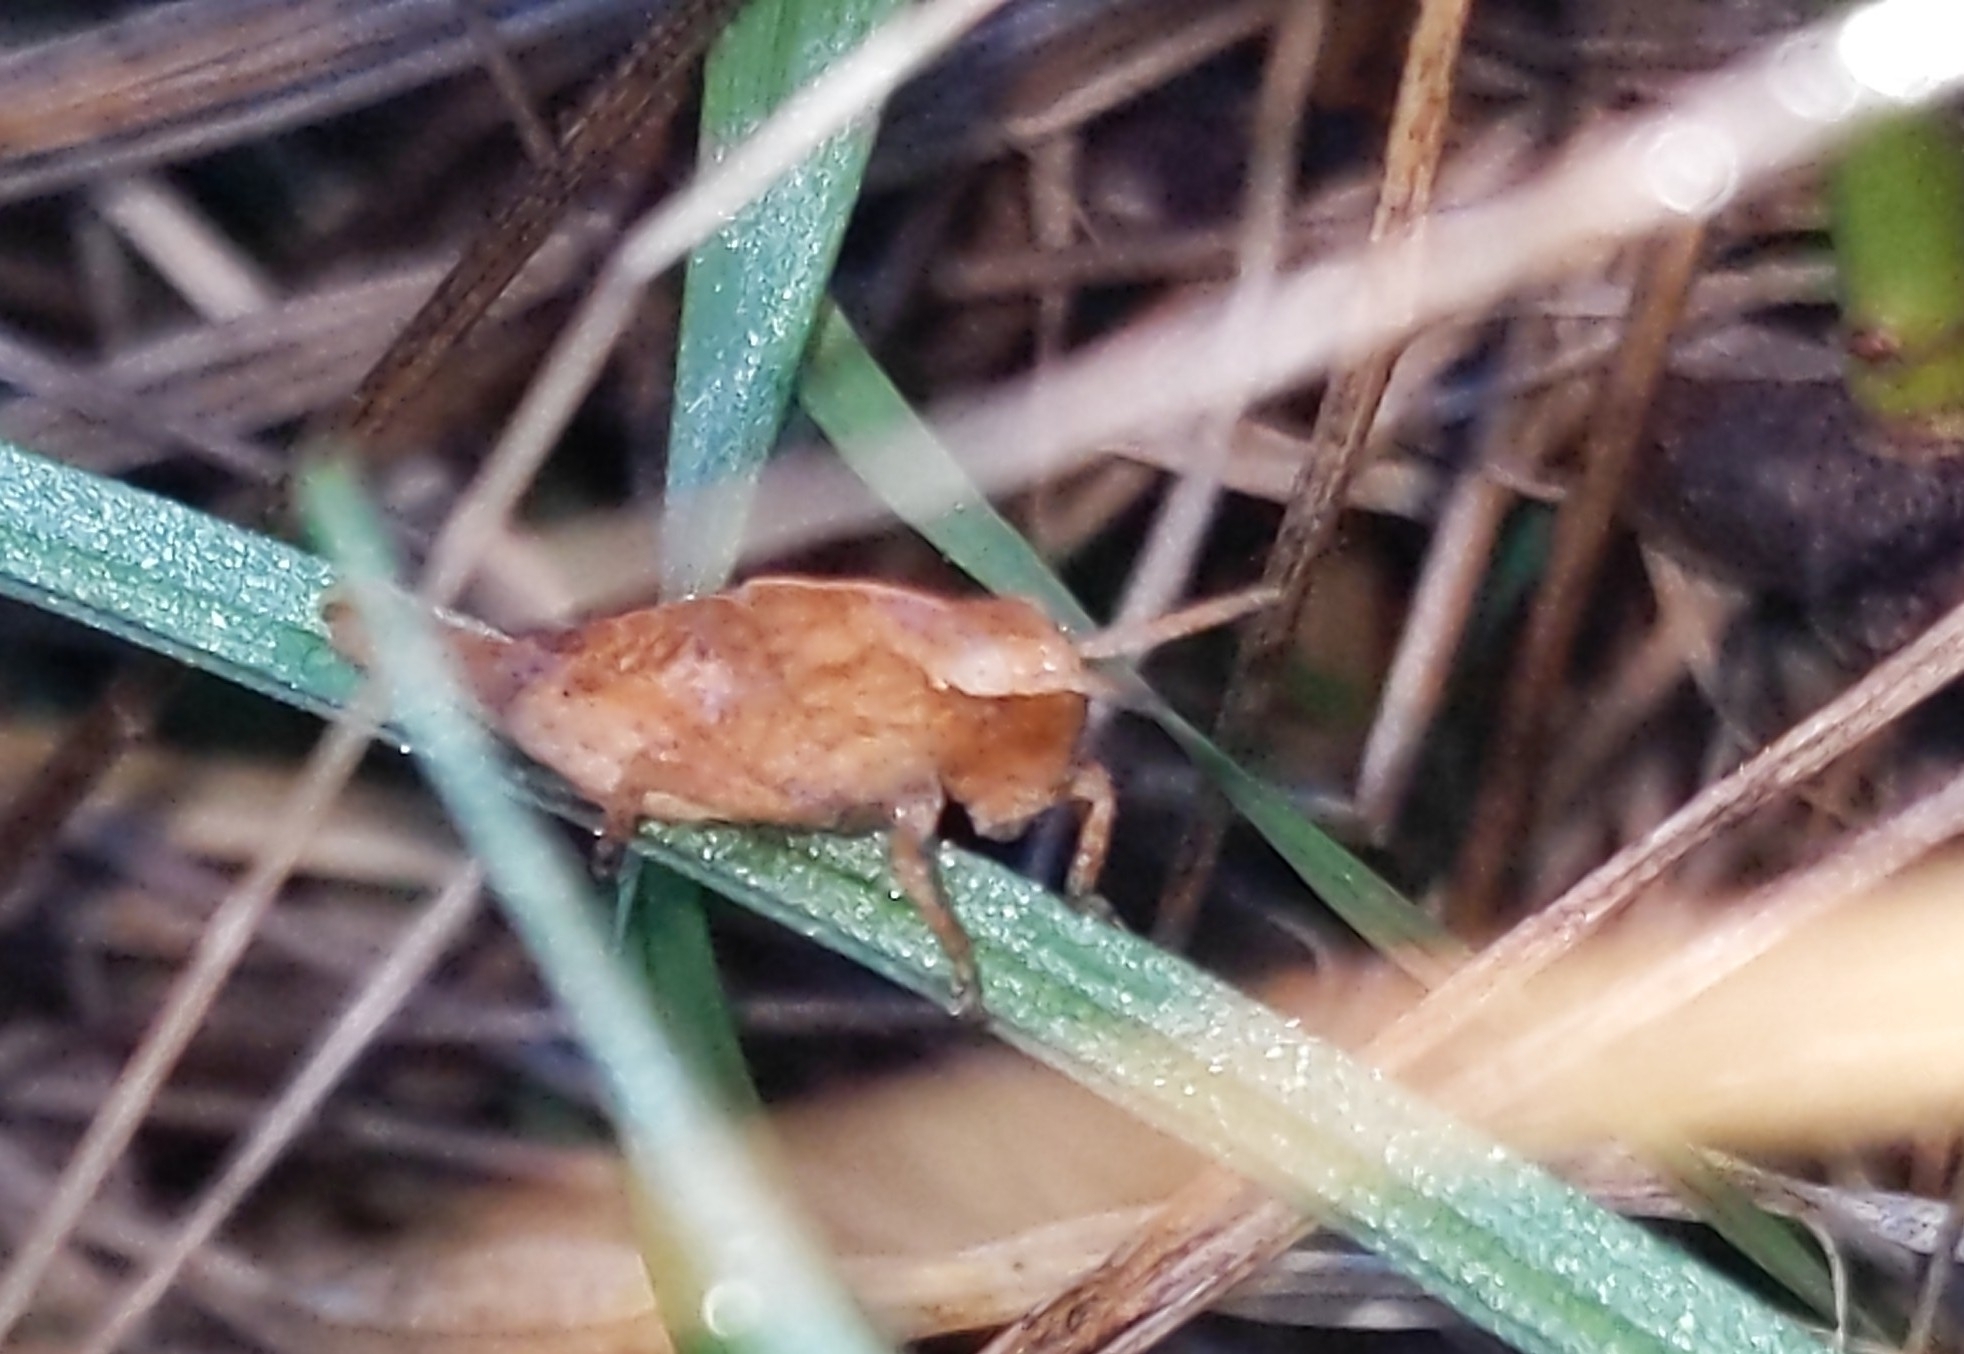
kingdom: Animalia
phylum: Arthropoda
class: Insecta
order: Orthoptera
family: Acrididae
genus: Chortophaga
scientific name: Chortophaga viridifasciata
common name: Green-striped grasshopper
